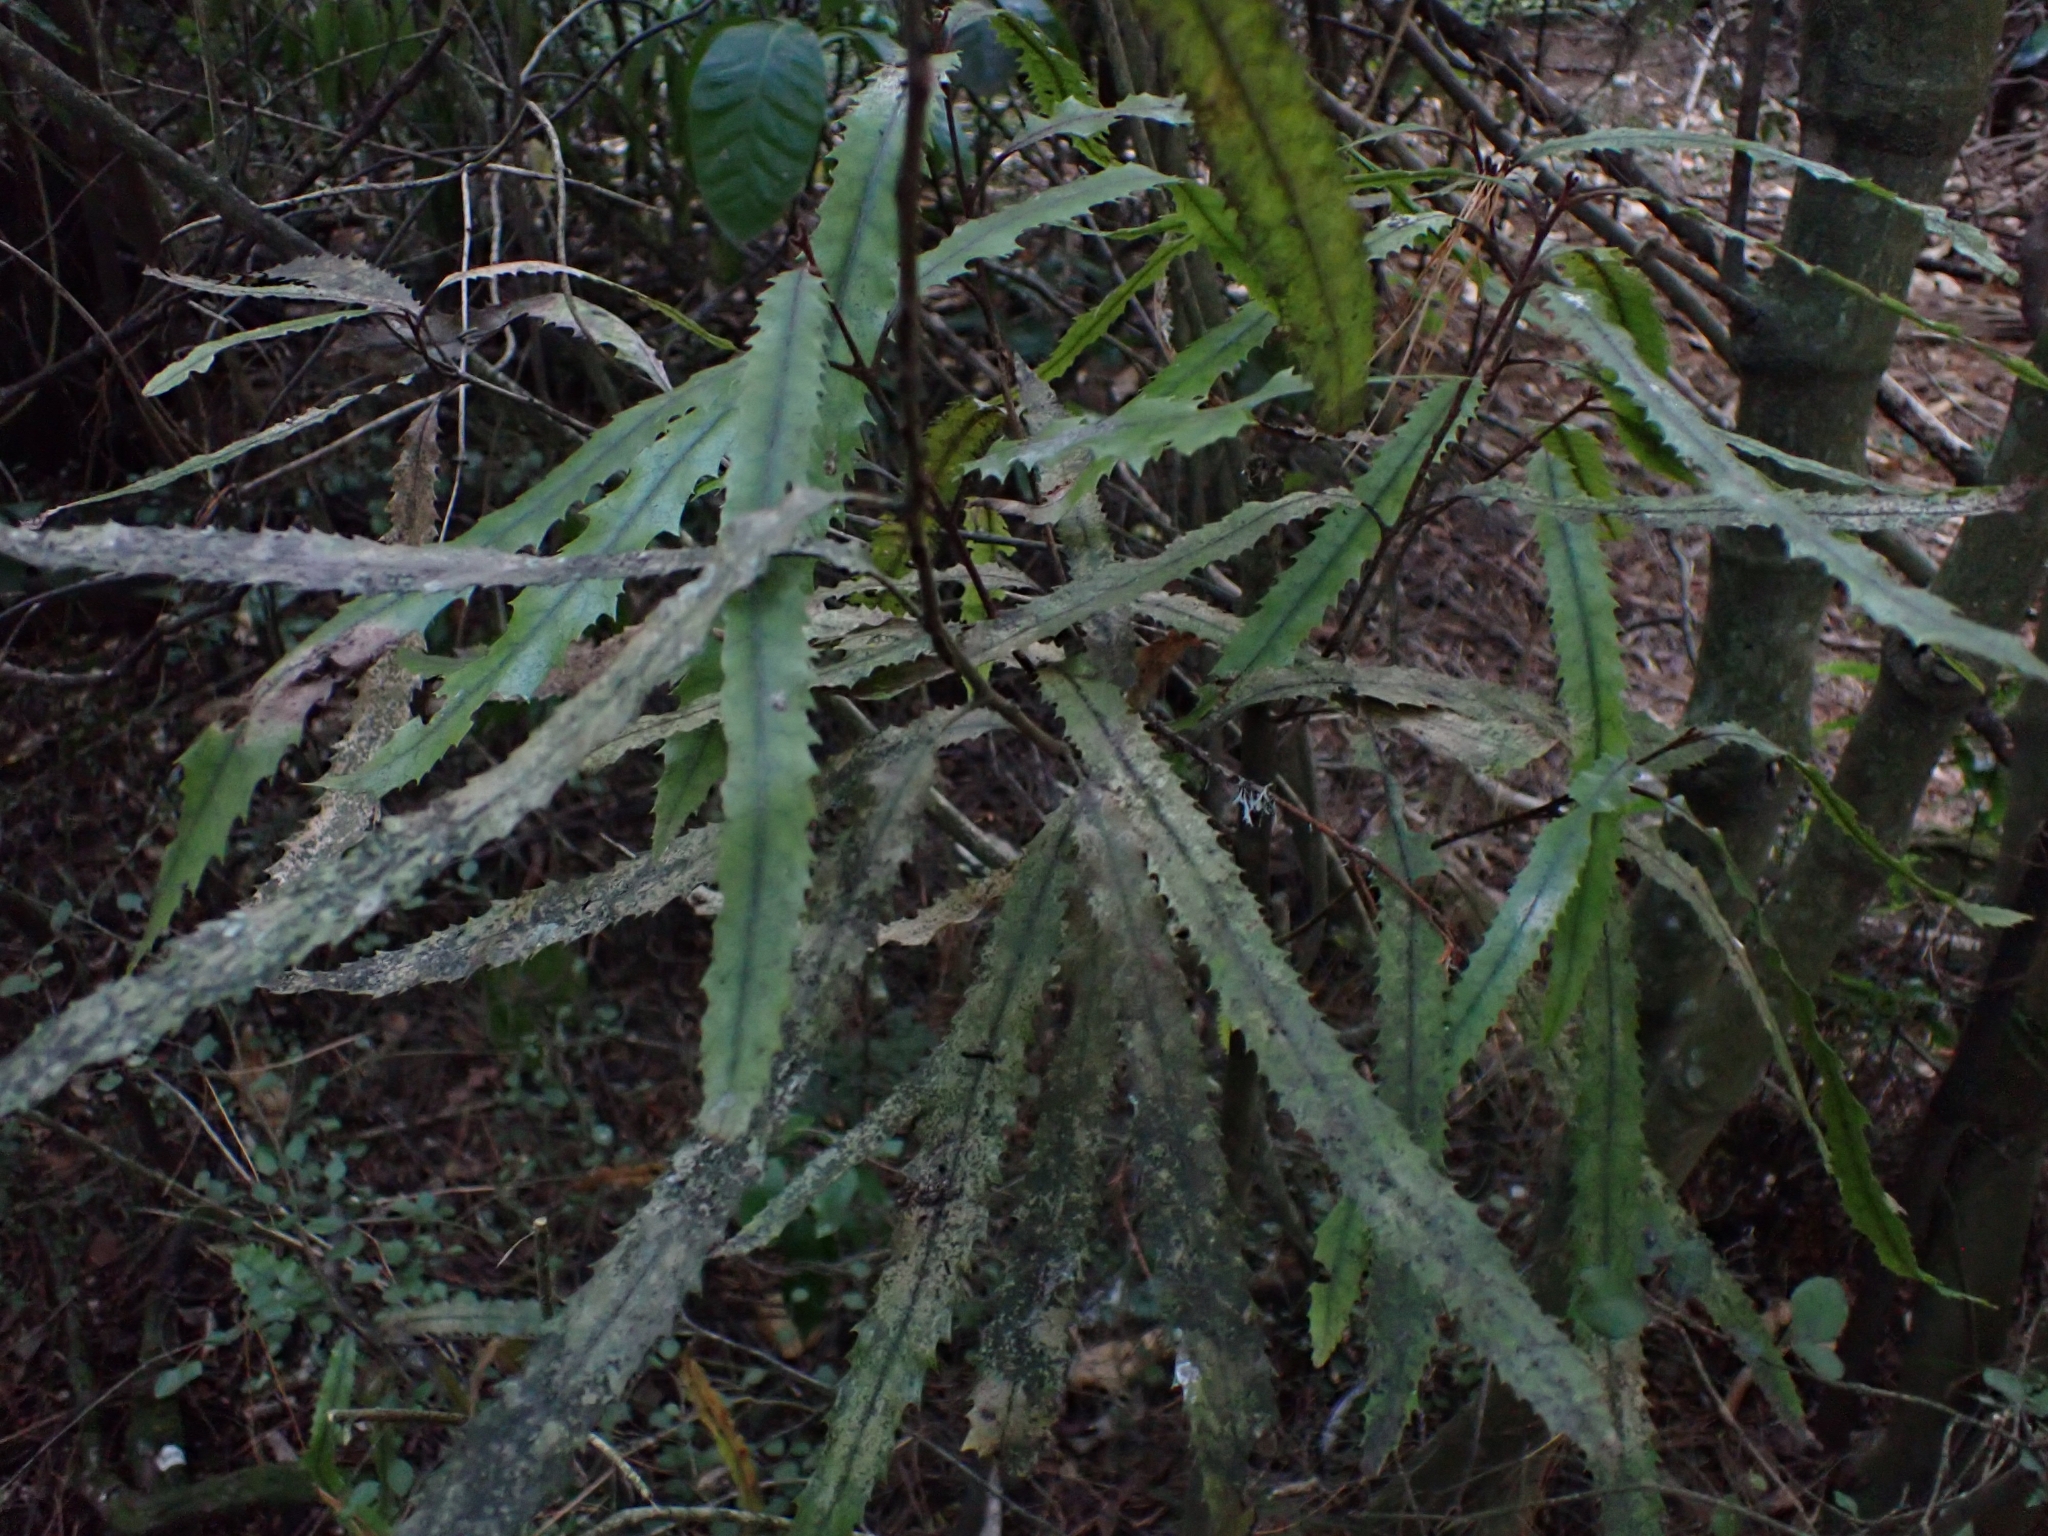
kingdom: Plantae
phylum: Tracheophyta
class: Magnoliopsida
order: Proteales
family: Proteaceae
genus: Knightia
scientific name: Knightia excelsa
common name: New zealand-honeysuckle
